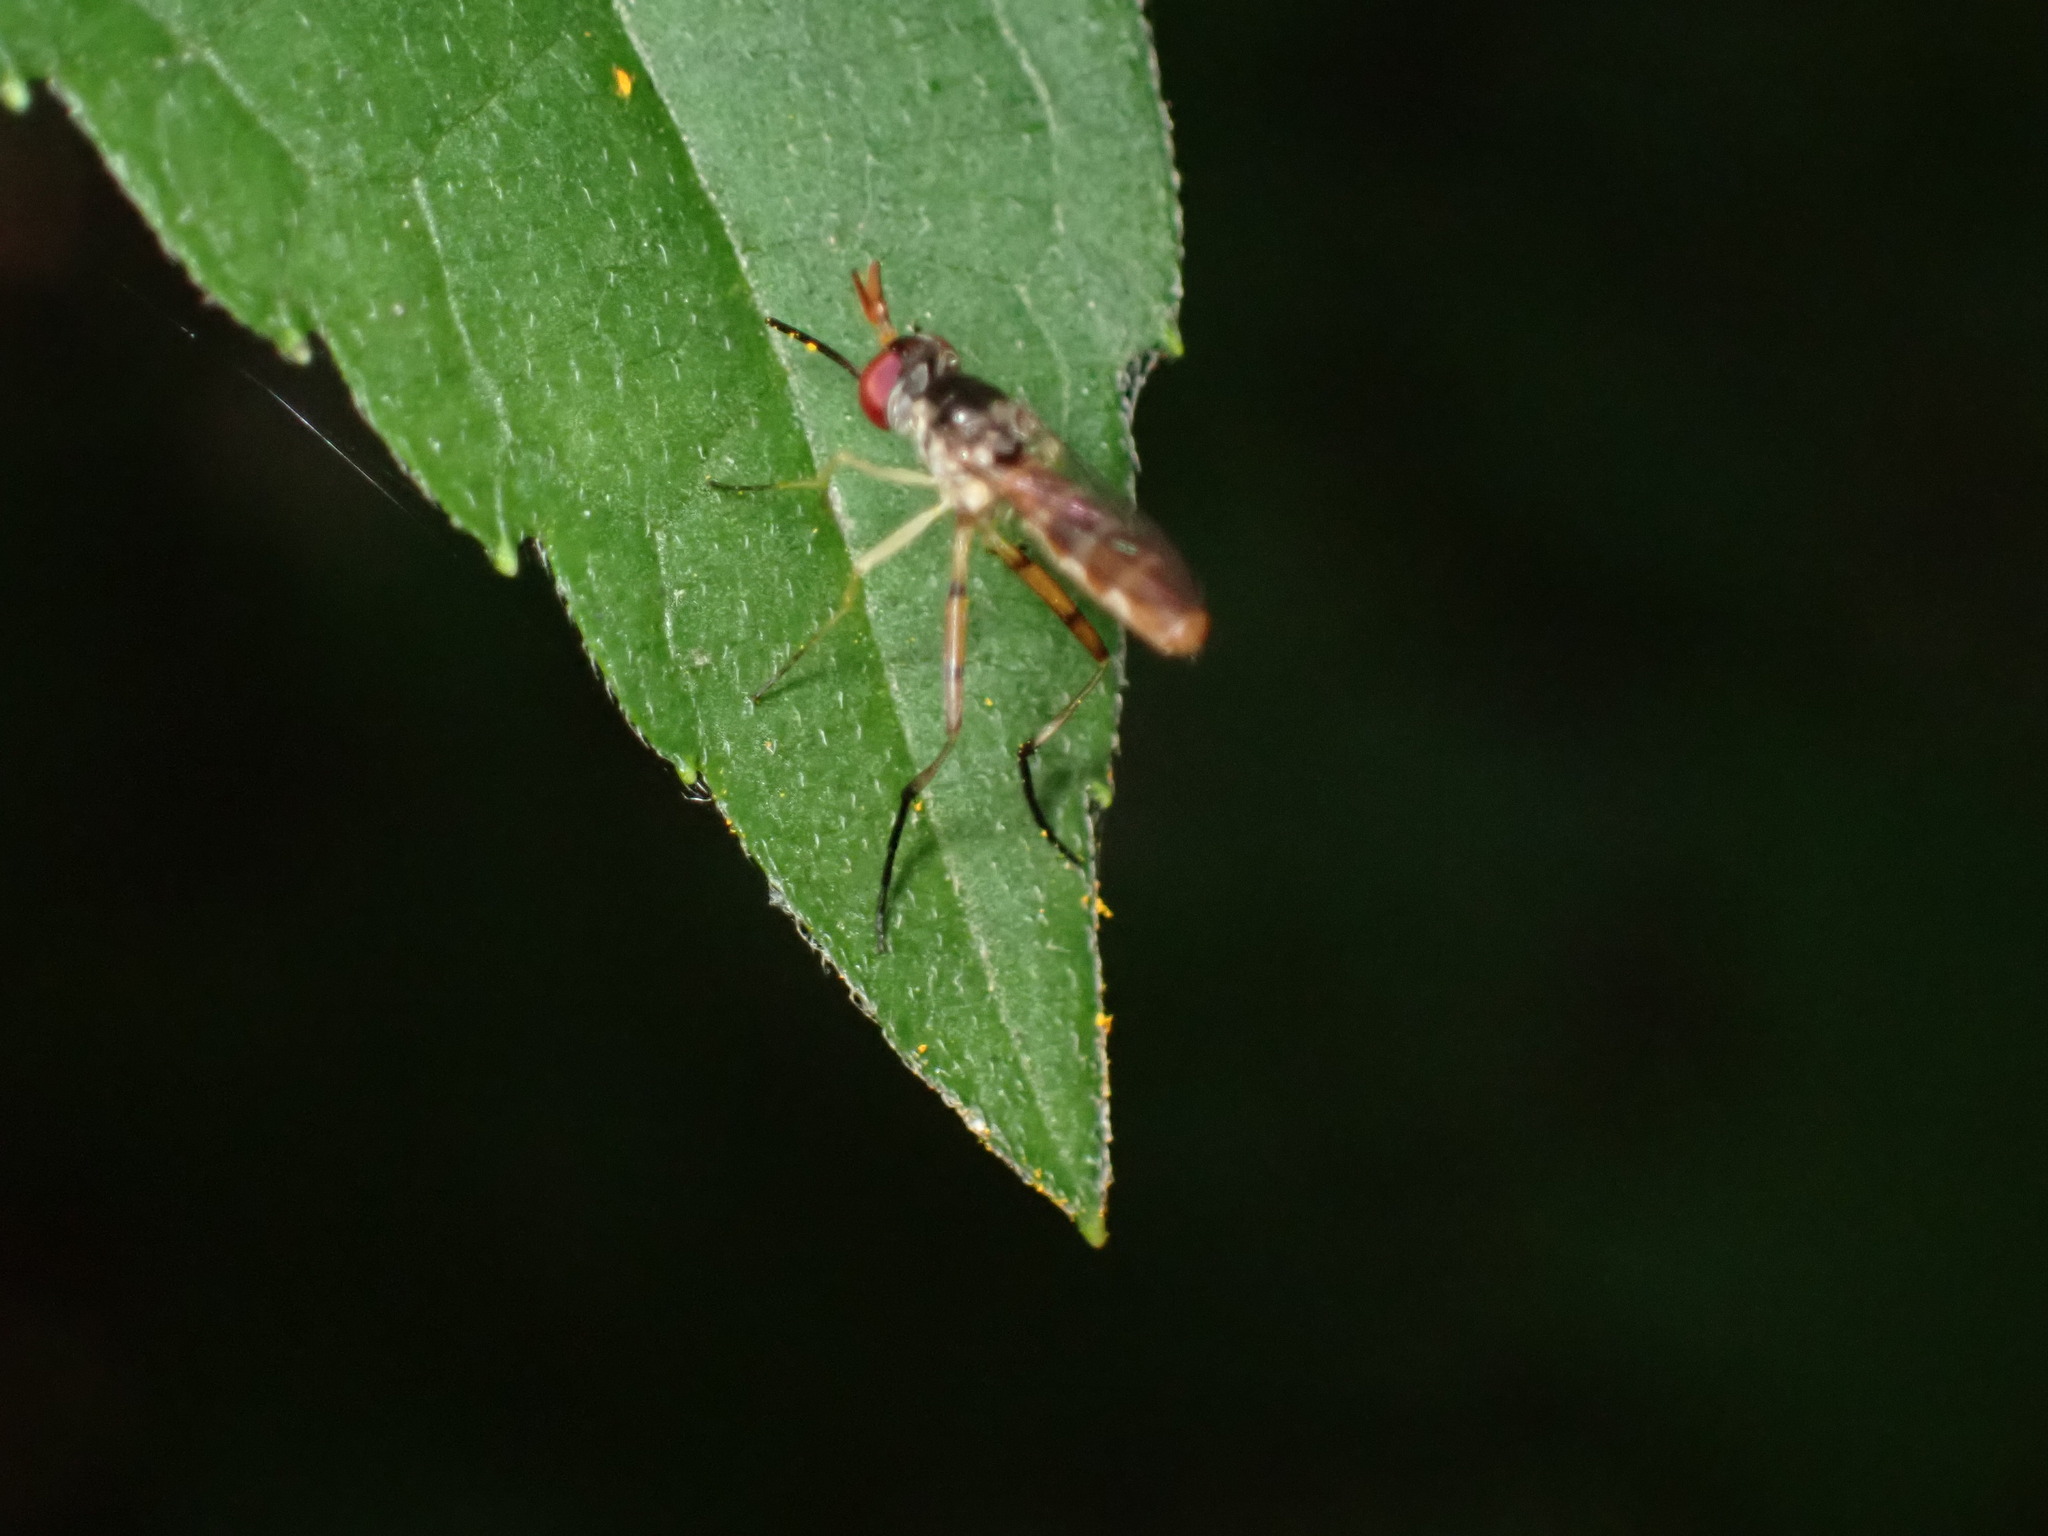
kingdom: Animalia
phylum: Arthropoda
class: Insecta
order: Diptera
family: Conopidae
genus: Stylogaster
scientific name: Stylogaster neglecta
